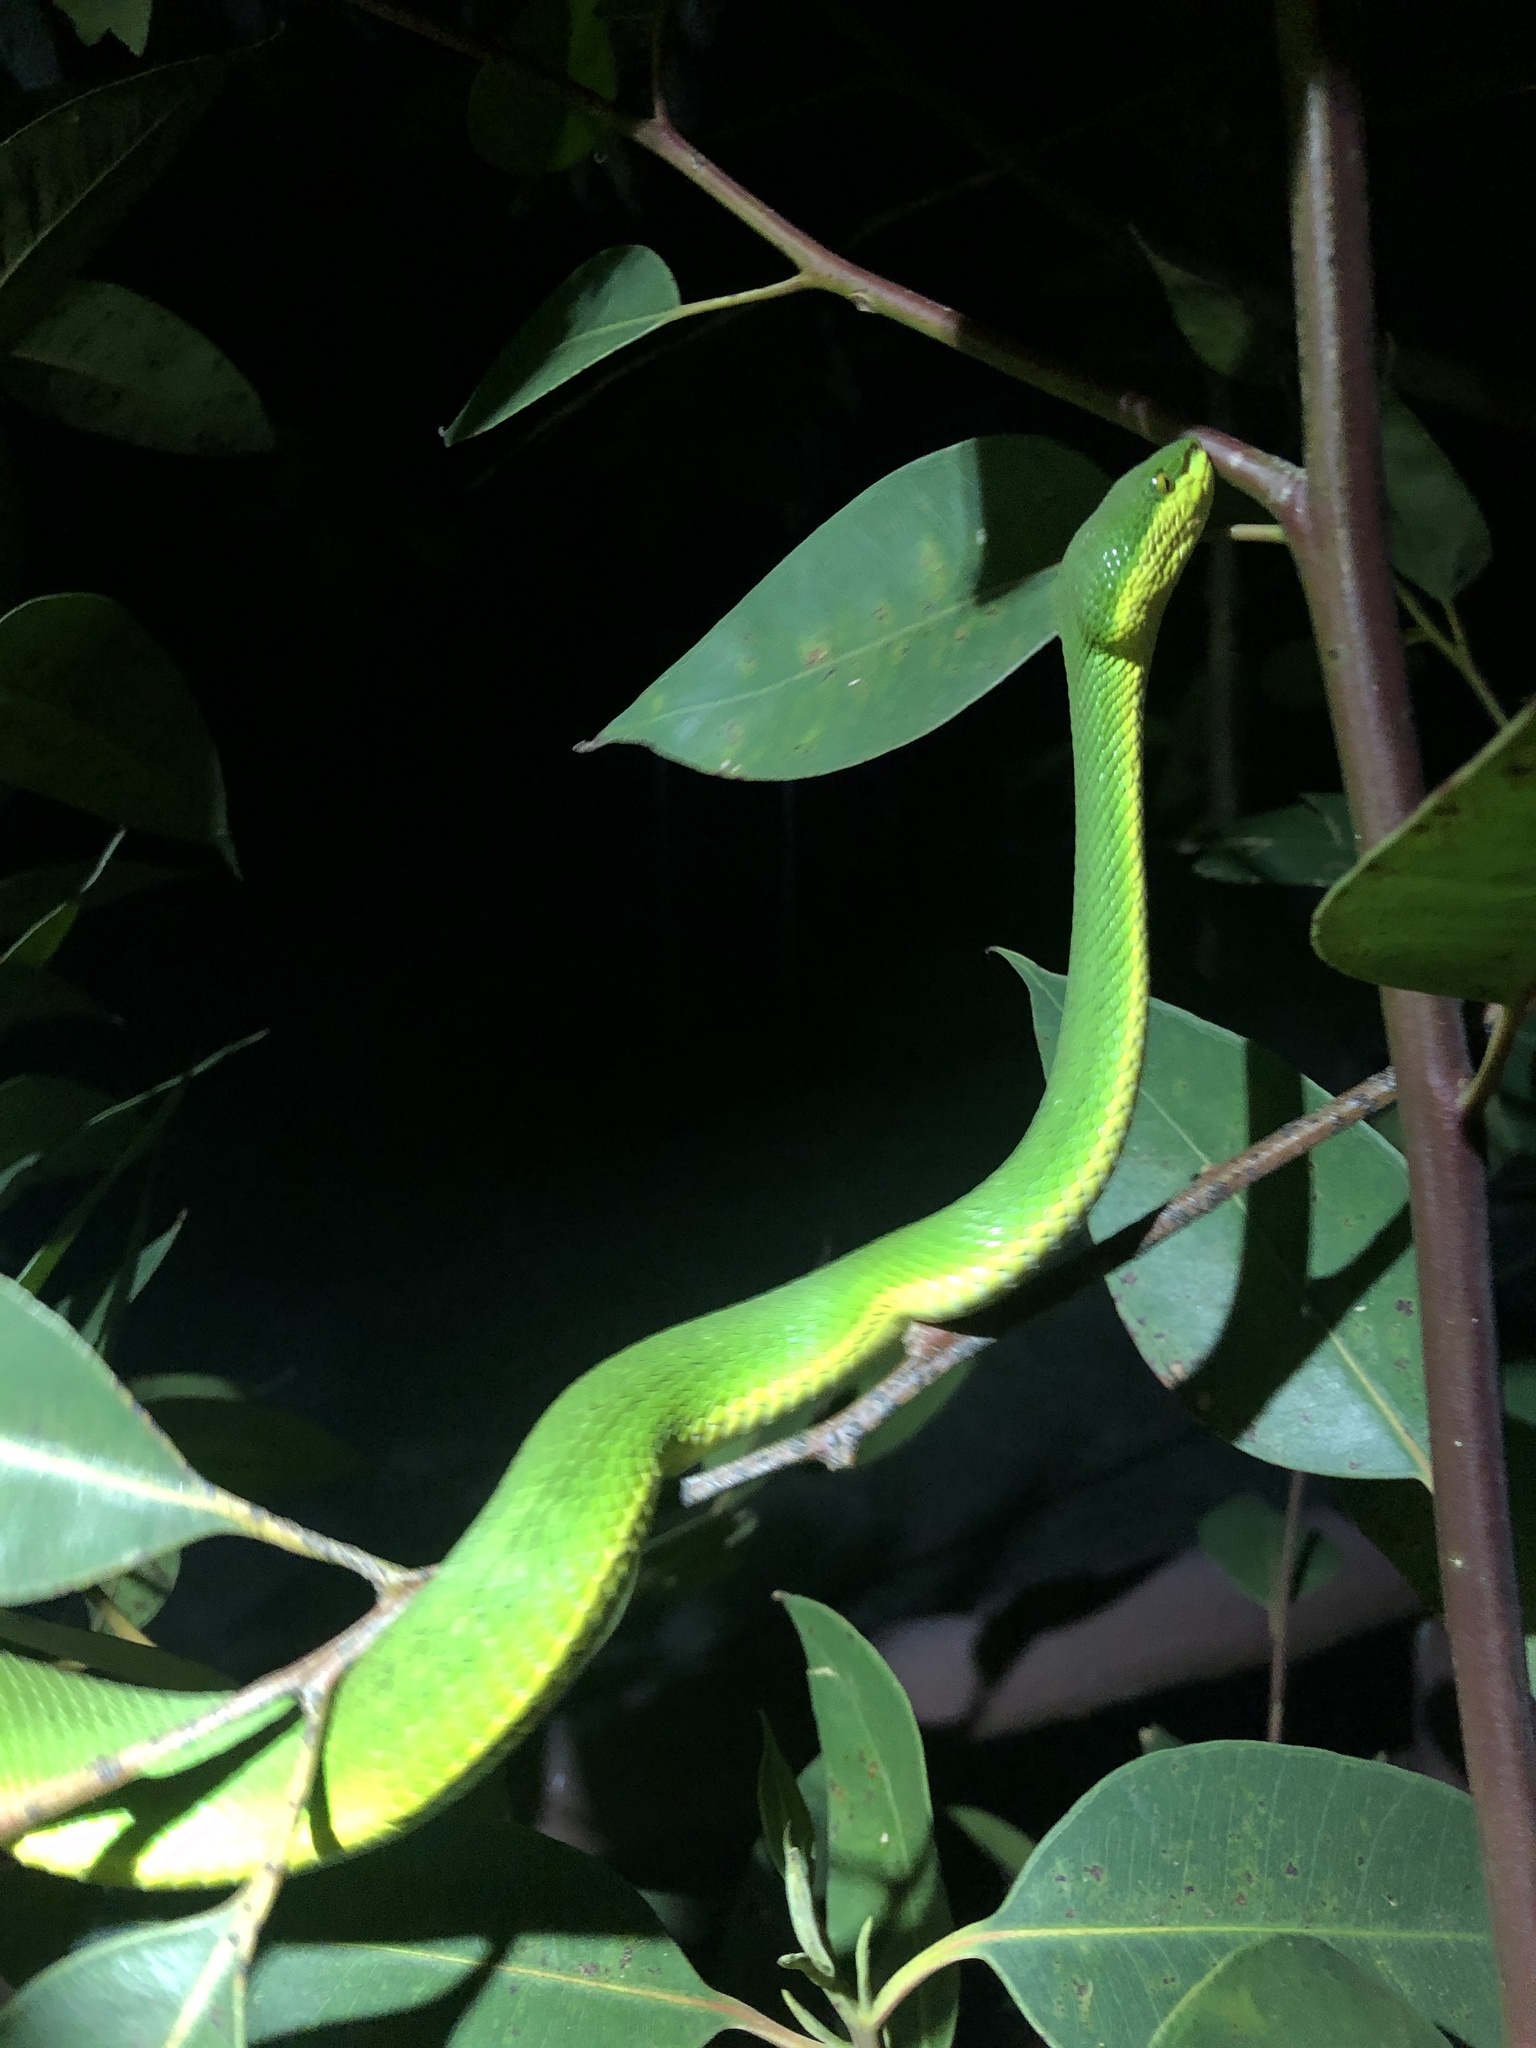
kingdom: Animalia
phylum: Chordata
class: Squamata
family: Viperidae
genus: Trimeresurus
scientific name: Trimeresurus albolabris
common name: White-lipped pitviper
